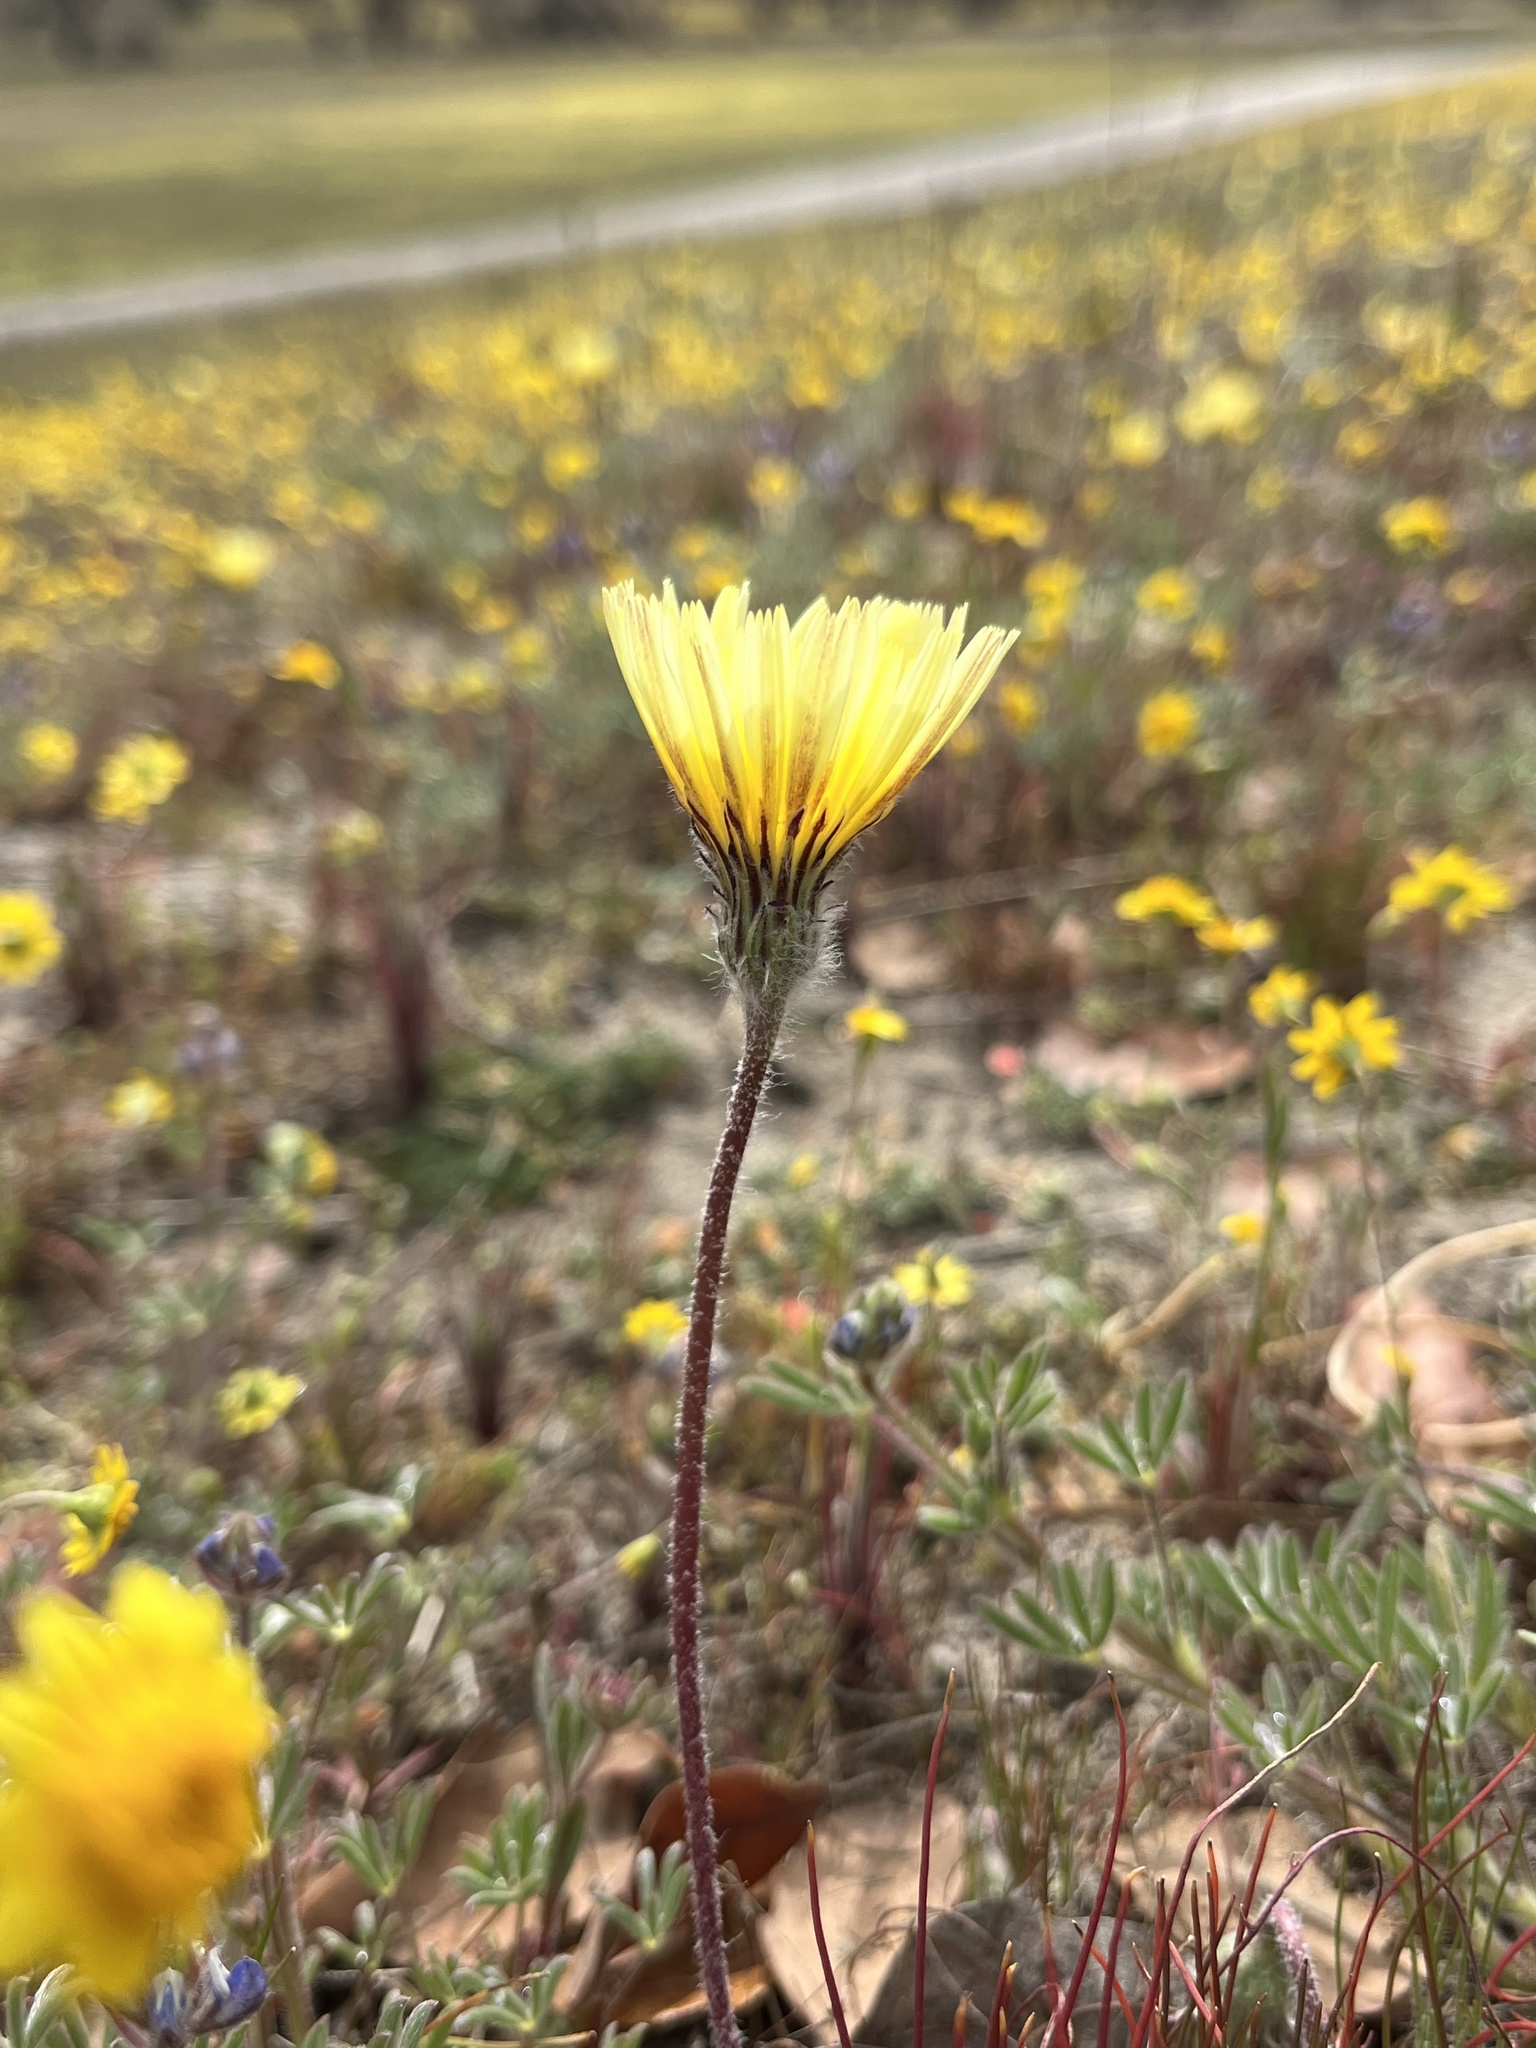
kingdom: Plantae
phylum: Tracheophyta
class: Magnoliopsida
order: Asterales
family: Asteraceae
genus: Malacothrix
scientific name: Malacothrix californica
